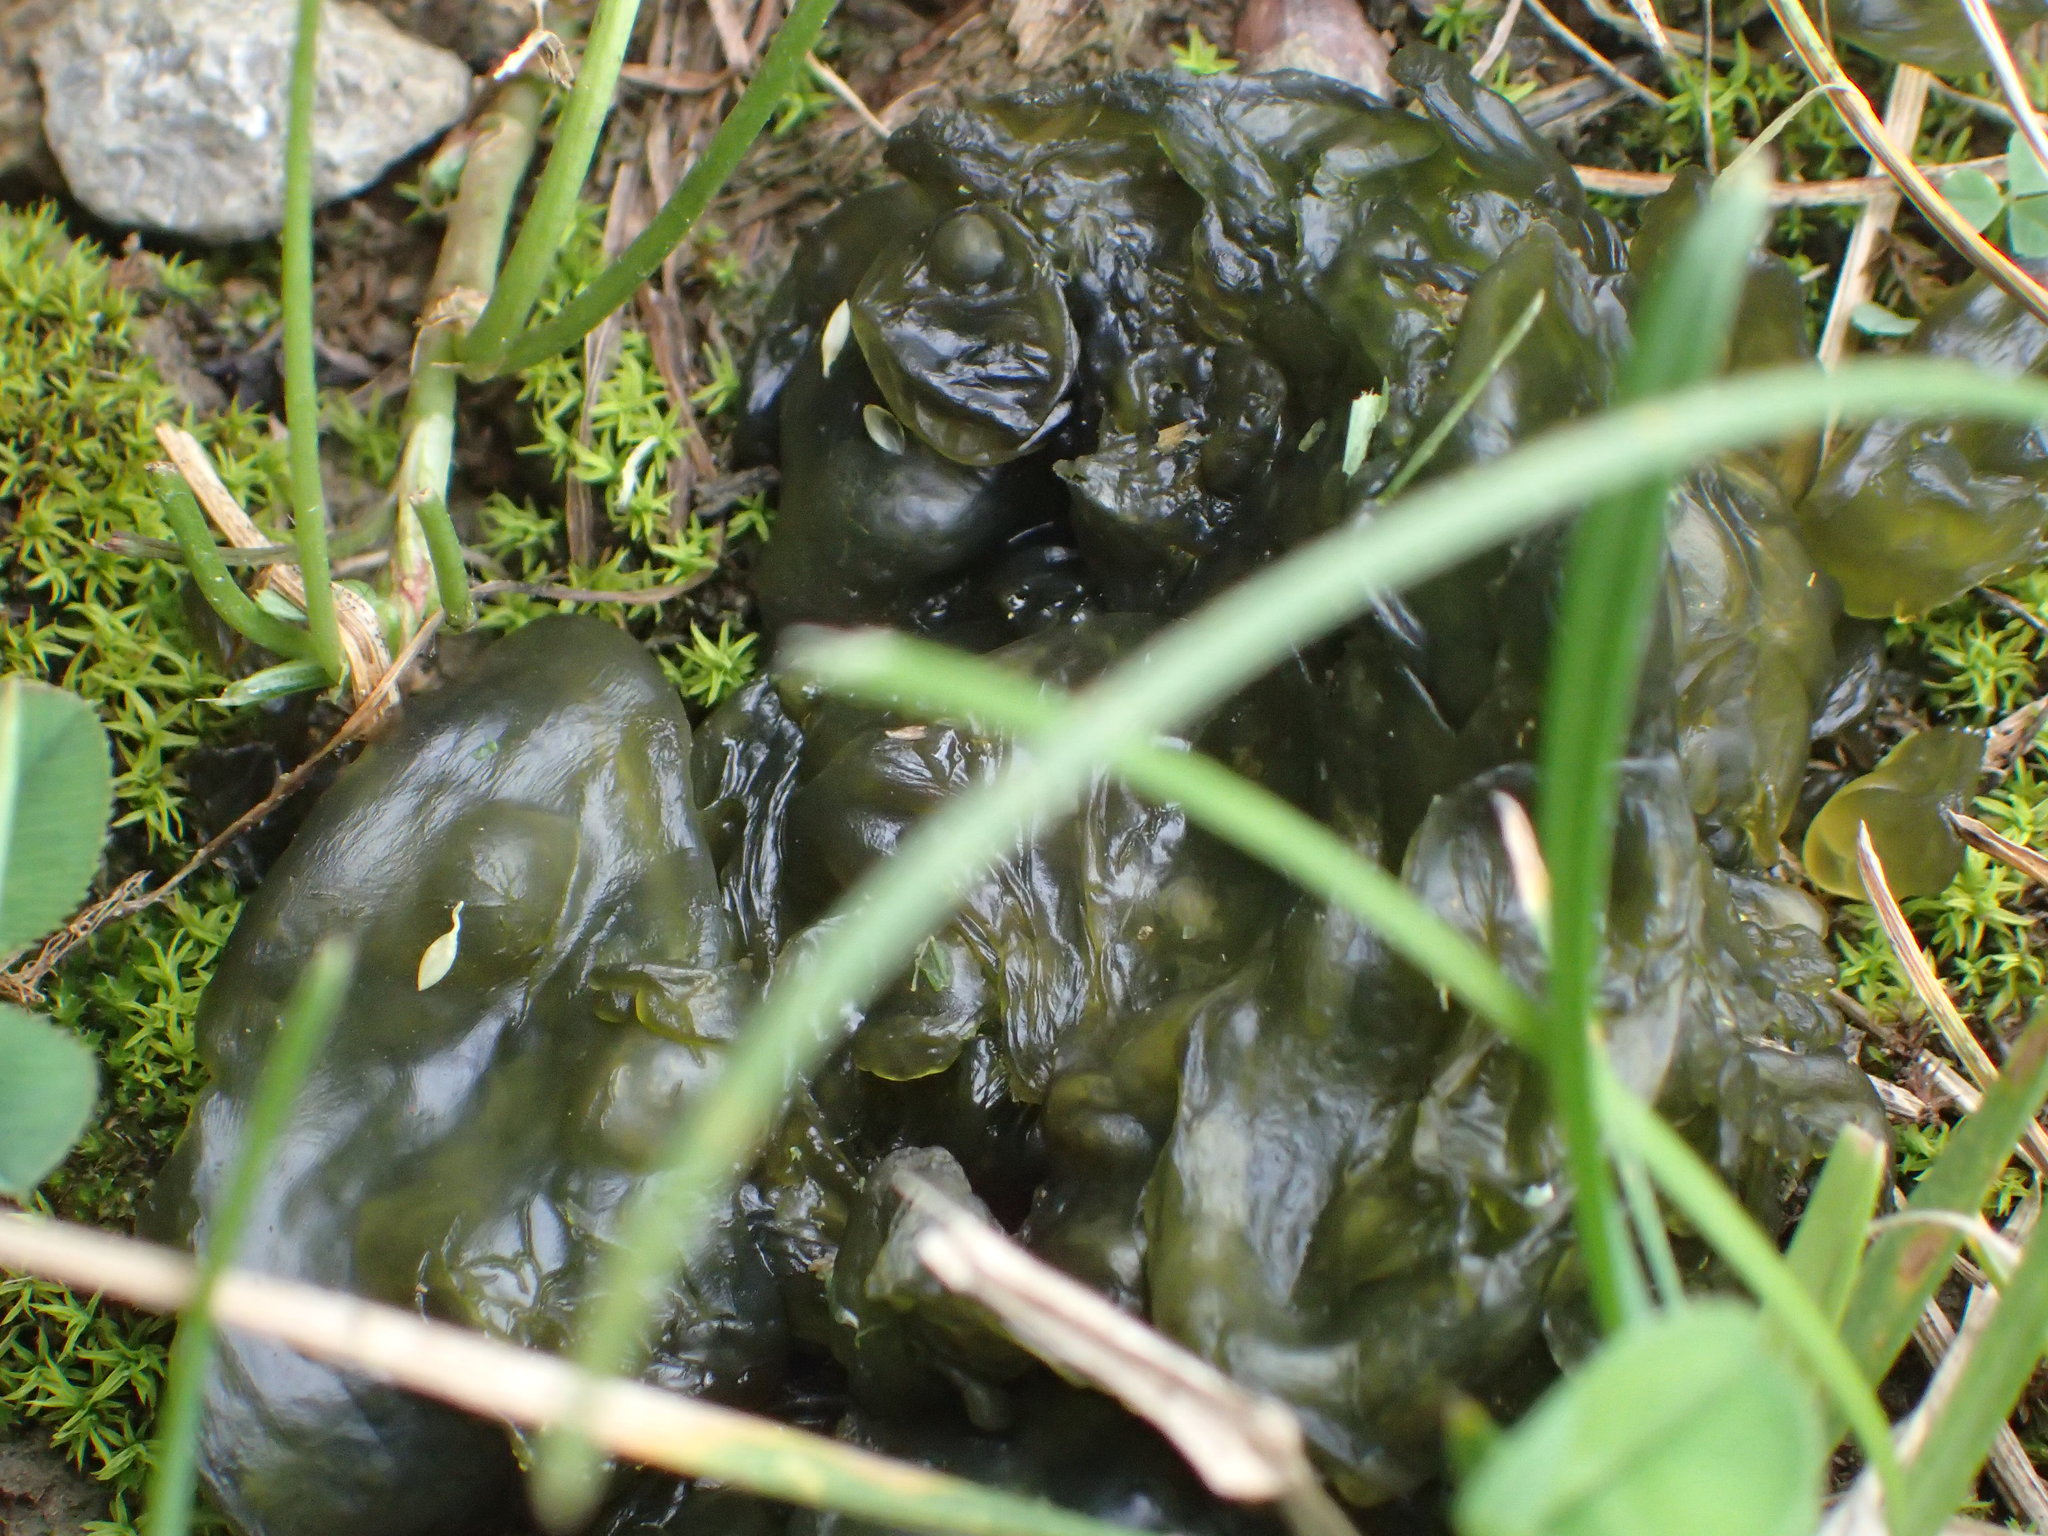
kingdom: Bacteria
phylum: Cyanobacteria
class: Cyanobacteriia
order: Cyanobacteriales
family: Nostocaceae
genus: Nostoc
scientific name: Nostoc commune
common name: Star jelly
